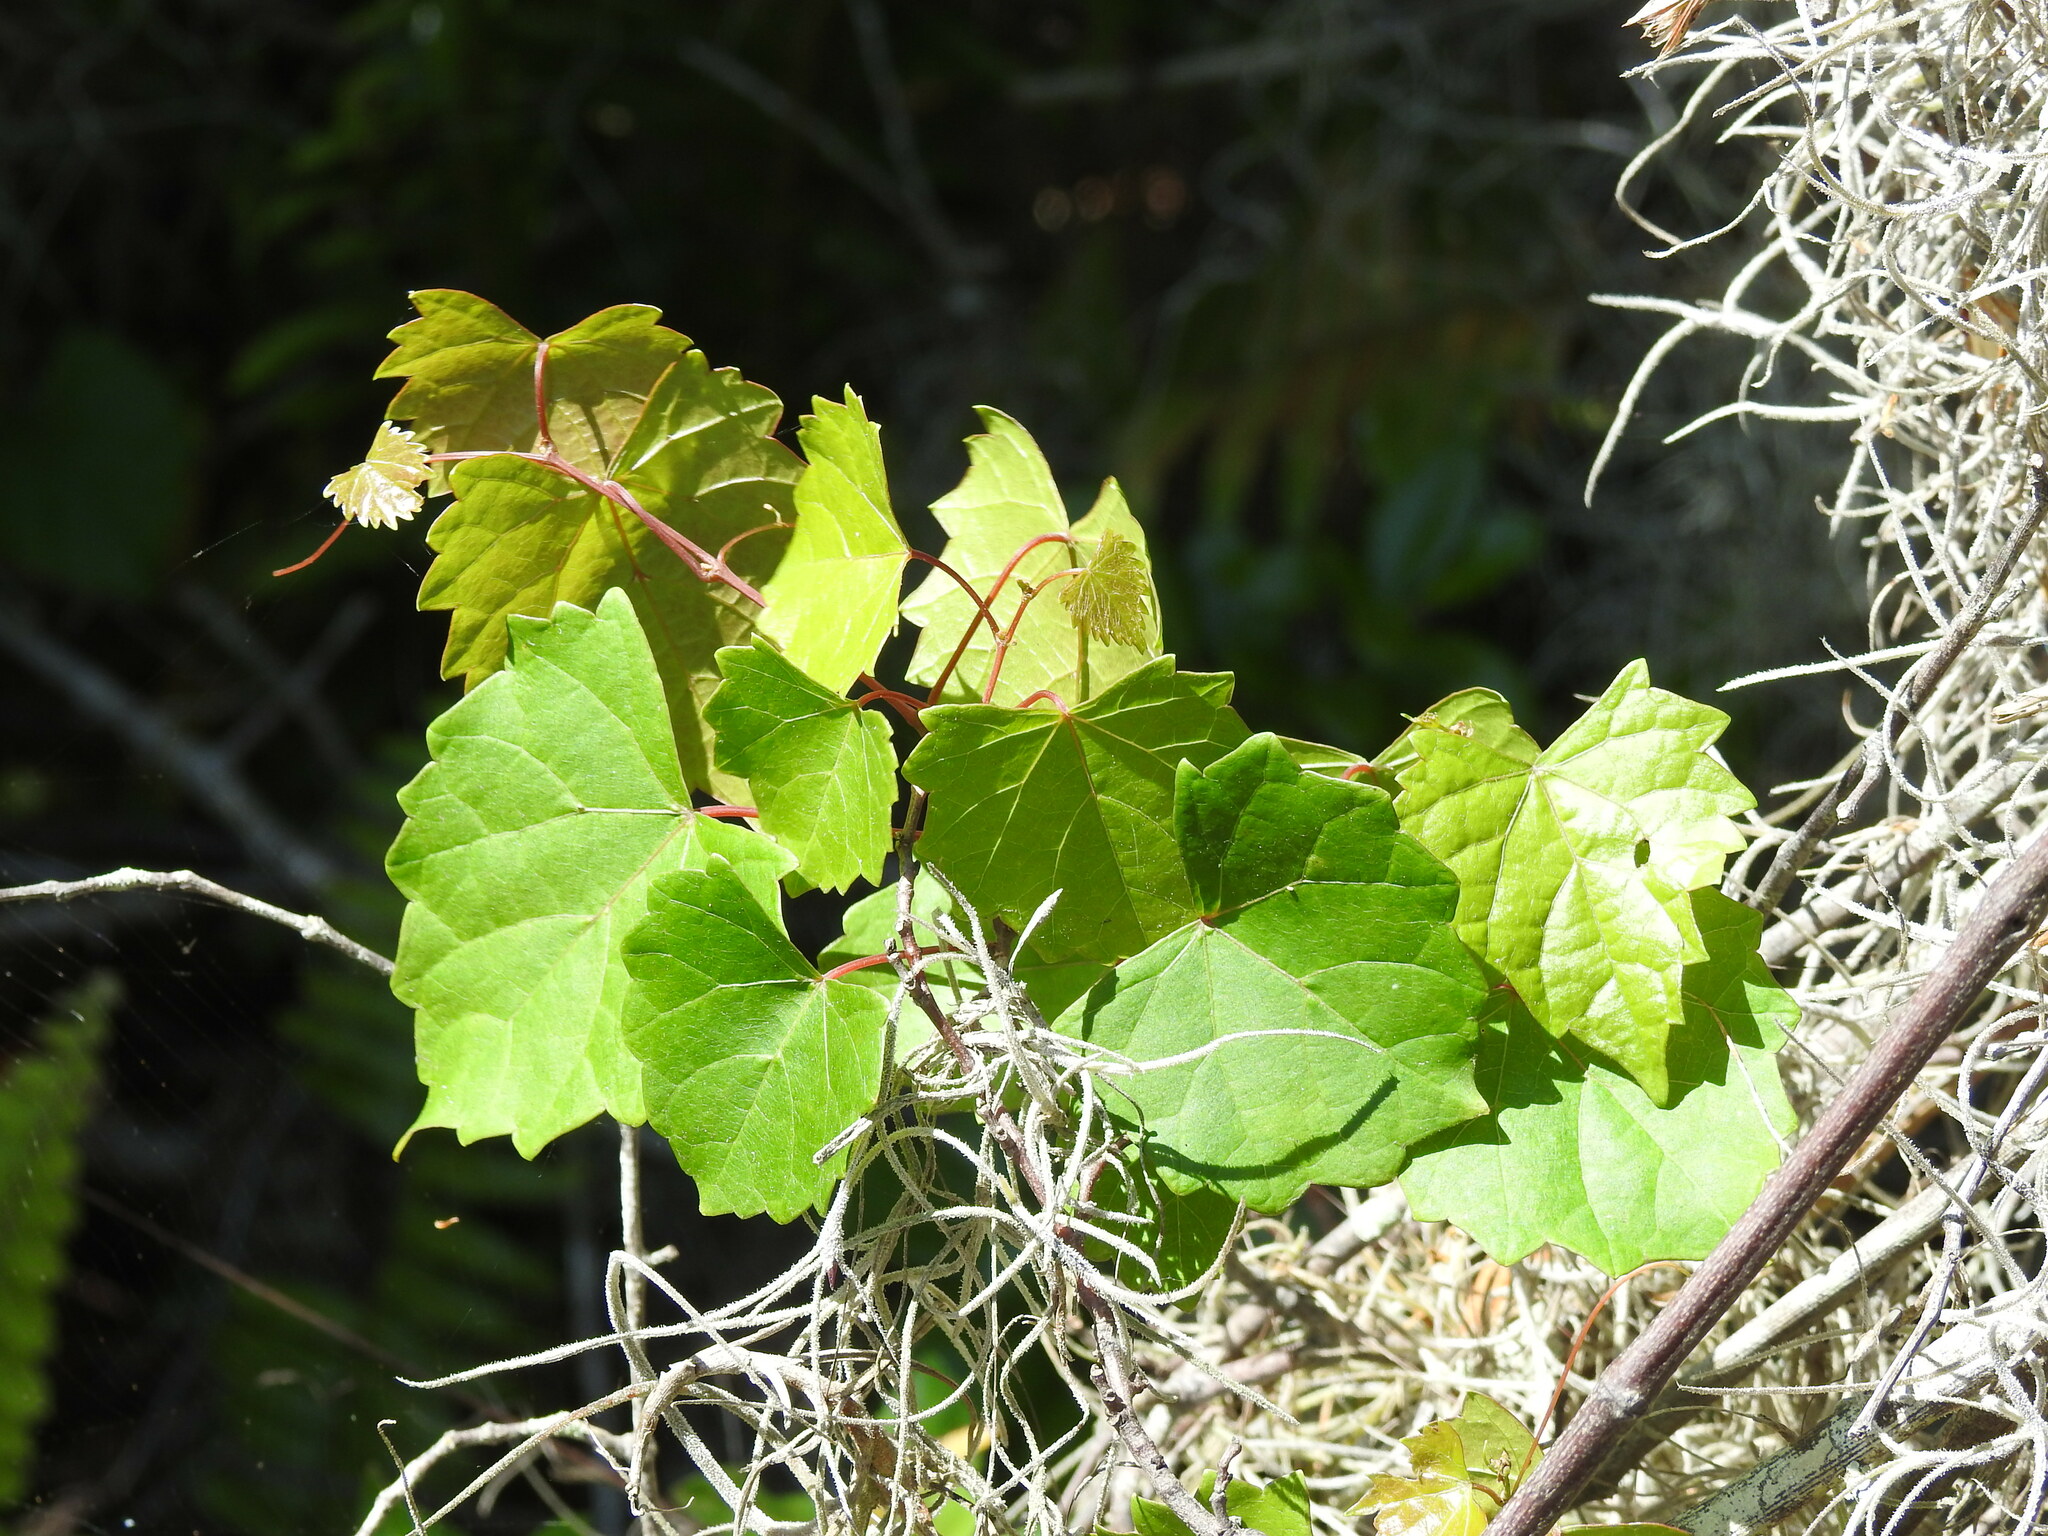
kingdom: Plantae
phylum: Tracheophyta
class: Magnoliopsida
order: Vitales
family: Vitaceae
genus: Vitis
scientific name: Vitis rotundifolia
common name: Muscadine grape
